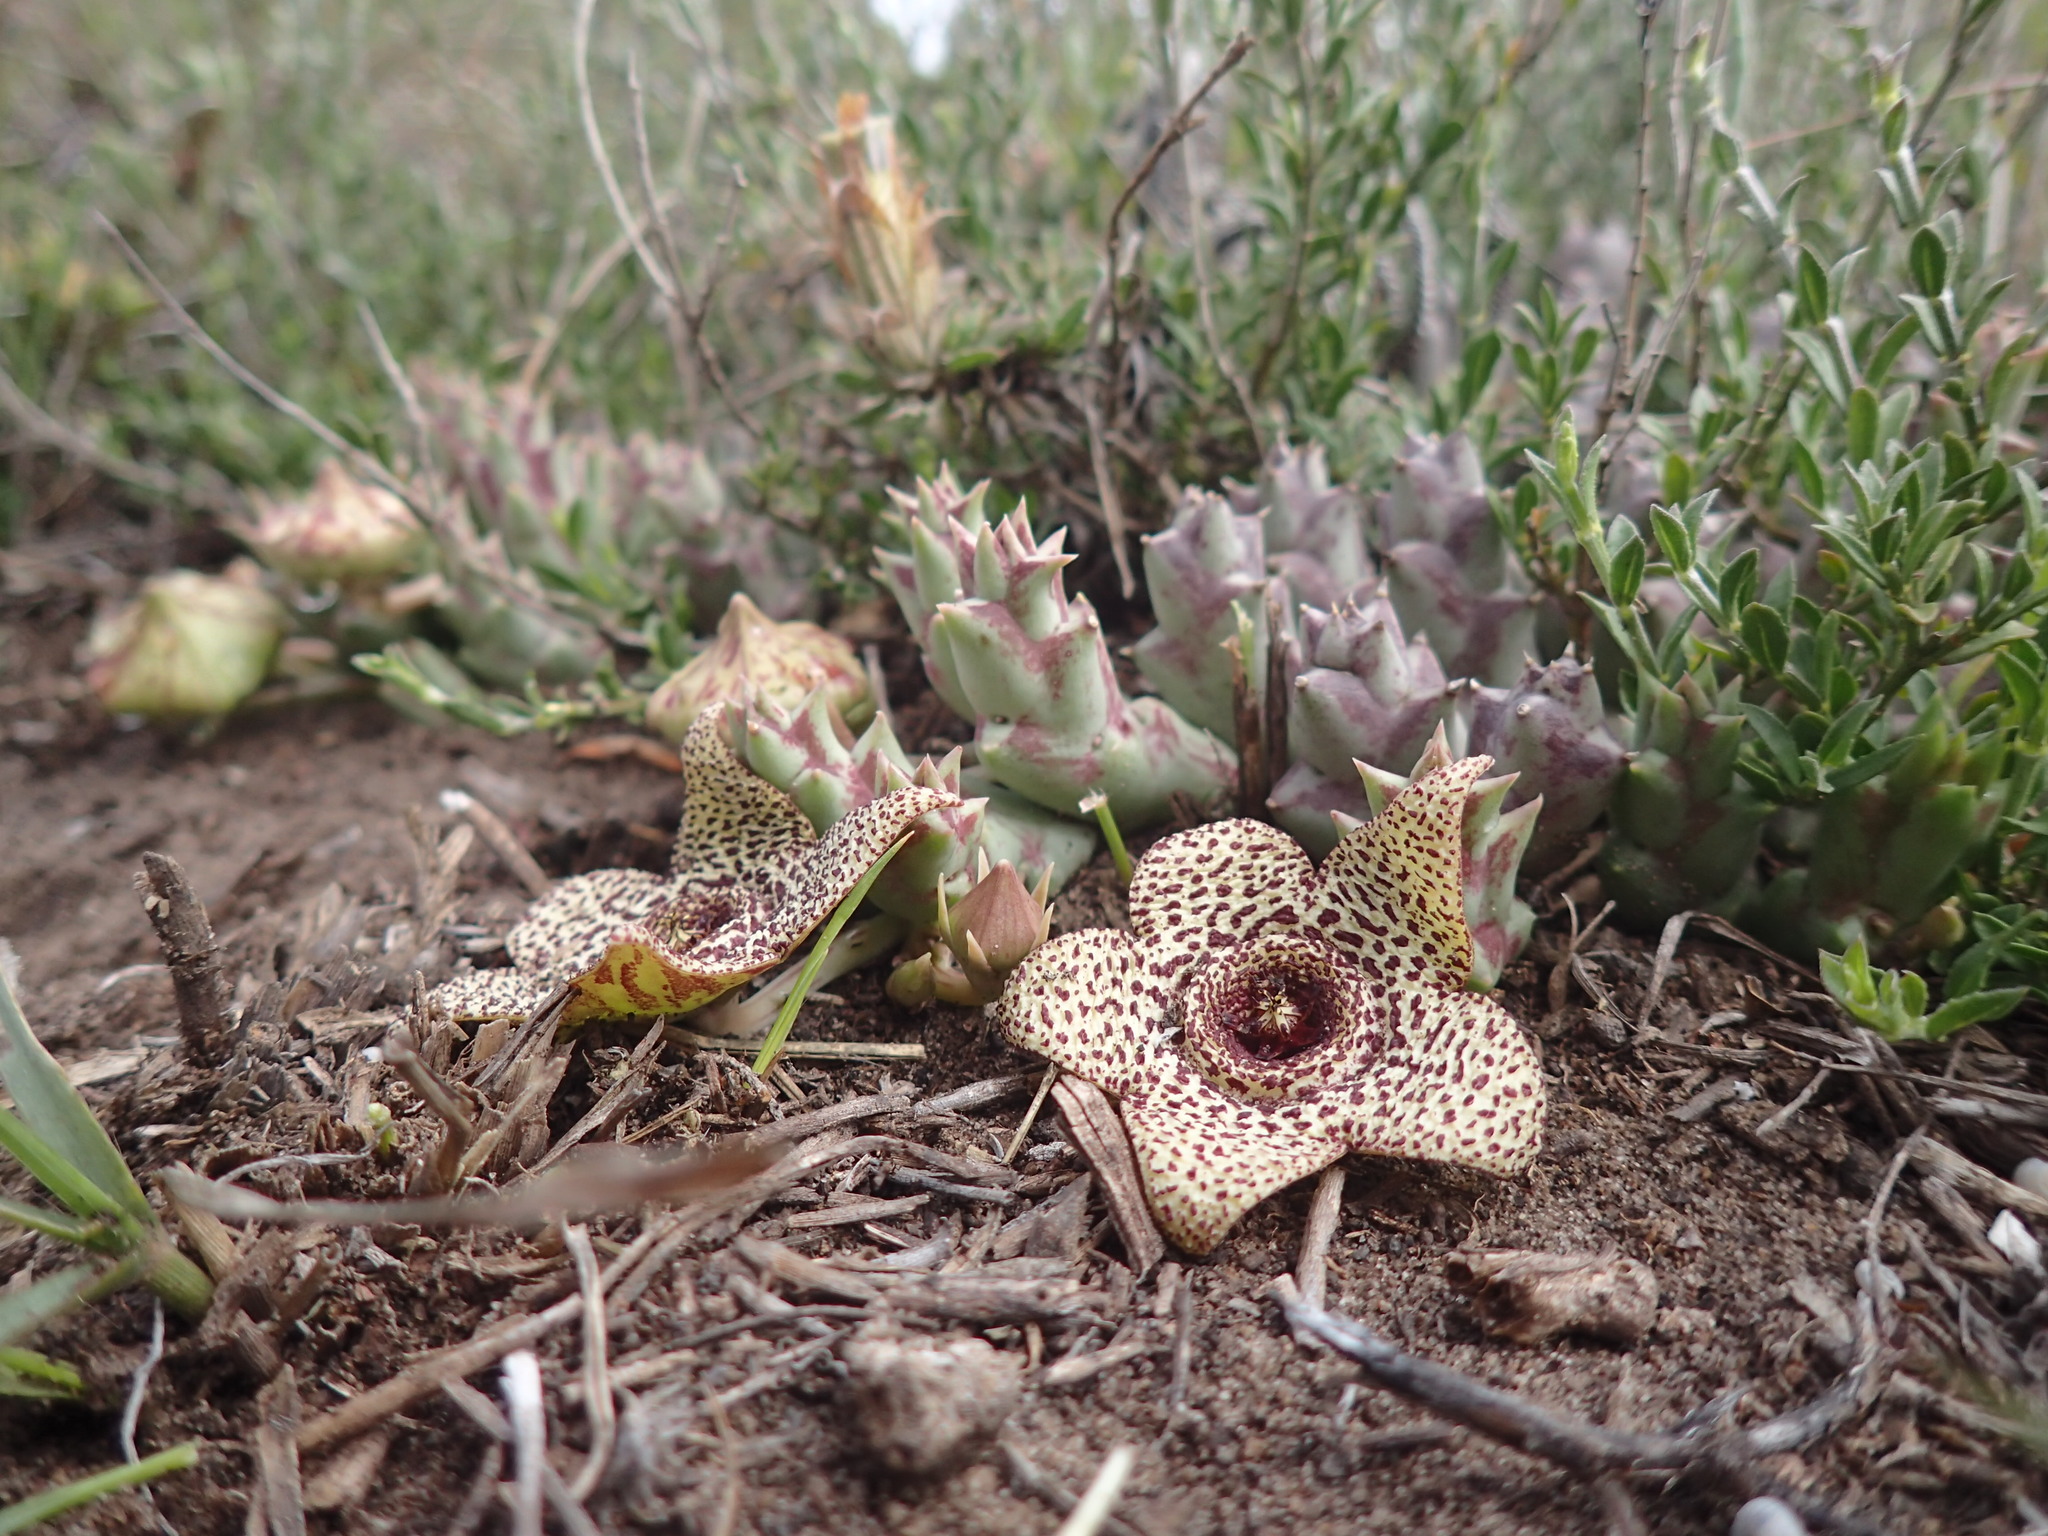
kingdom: Plantae
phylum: Tracheophyta
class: Magnoliopsida
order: Gentianales
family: Apocynaceae
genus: Ceropegia
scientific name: Ceropegia pulchella
